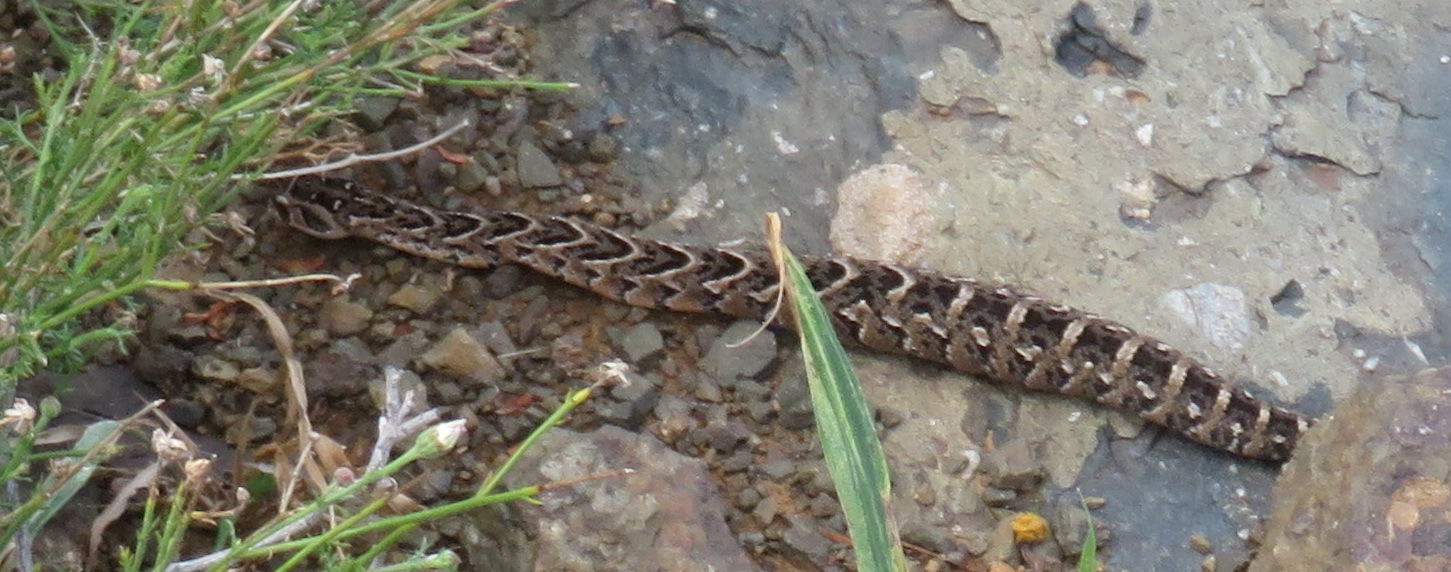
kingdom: Animalia
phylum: Chordata
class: Squamata
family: Viperidae
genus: Bitis
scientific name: Bitis arietans
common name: Puff adder
